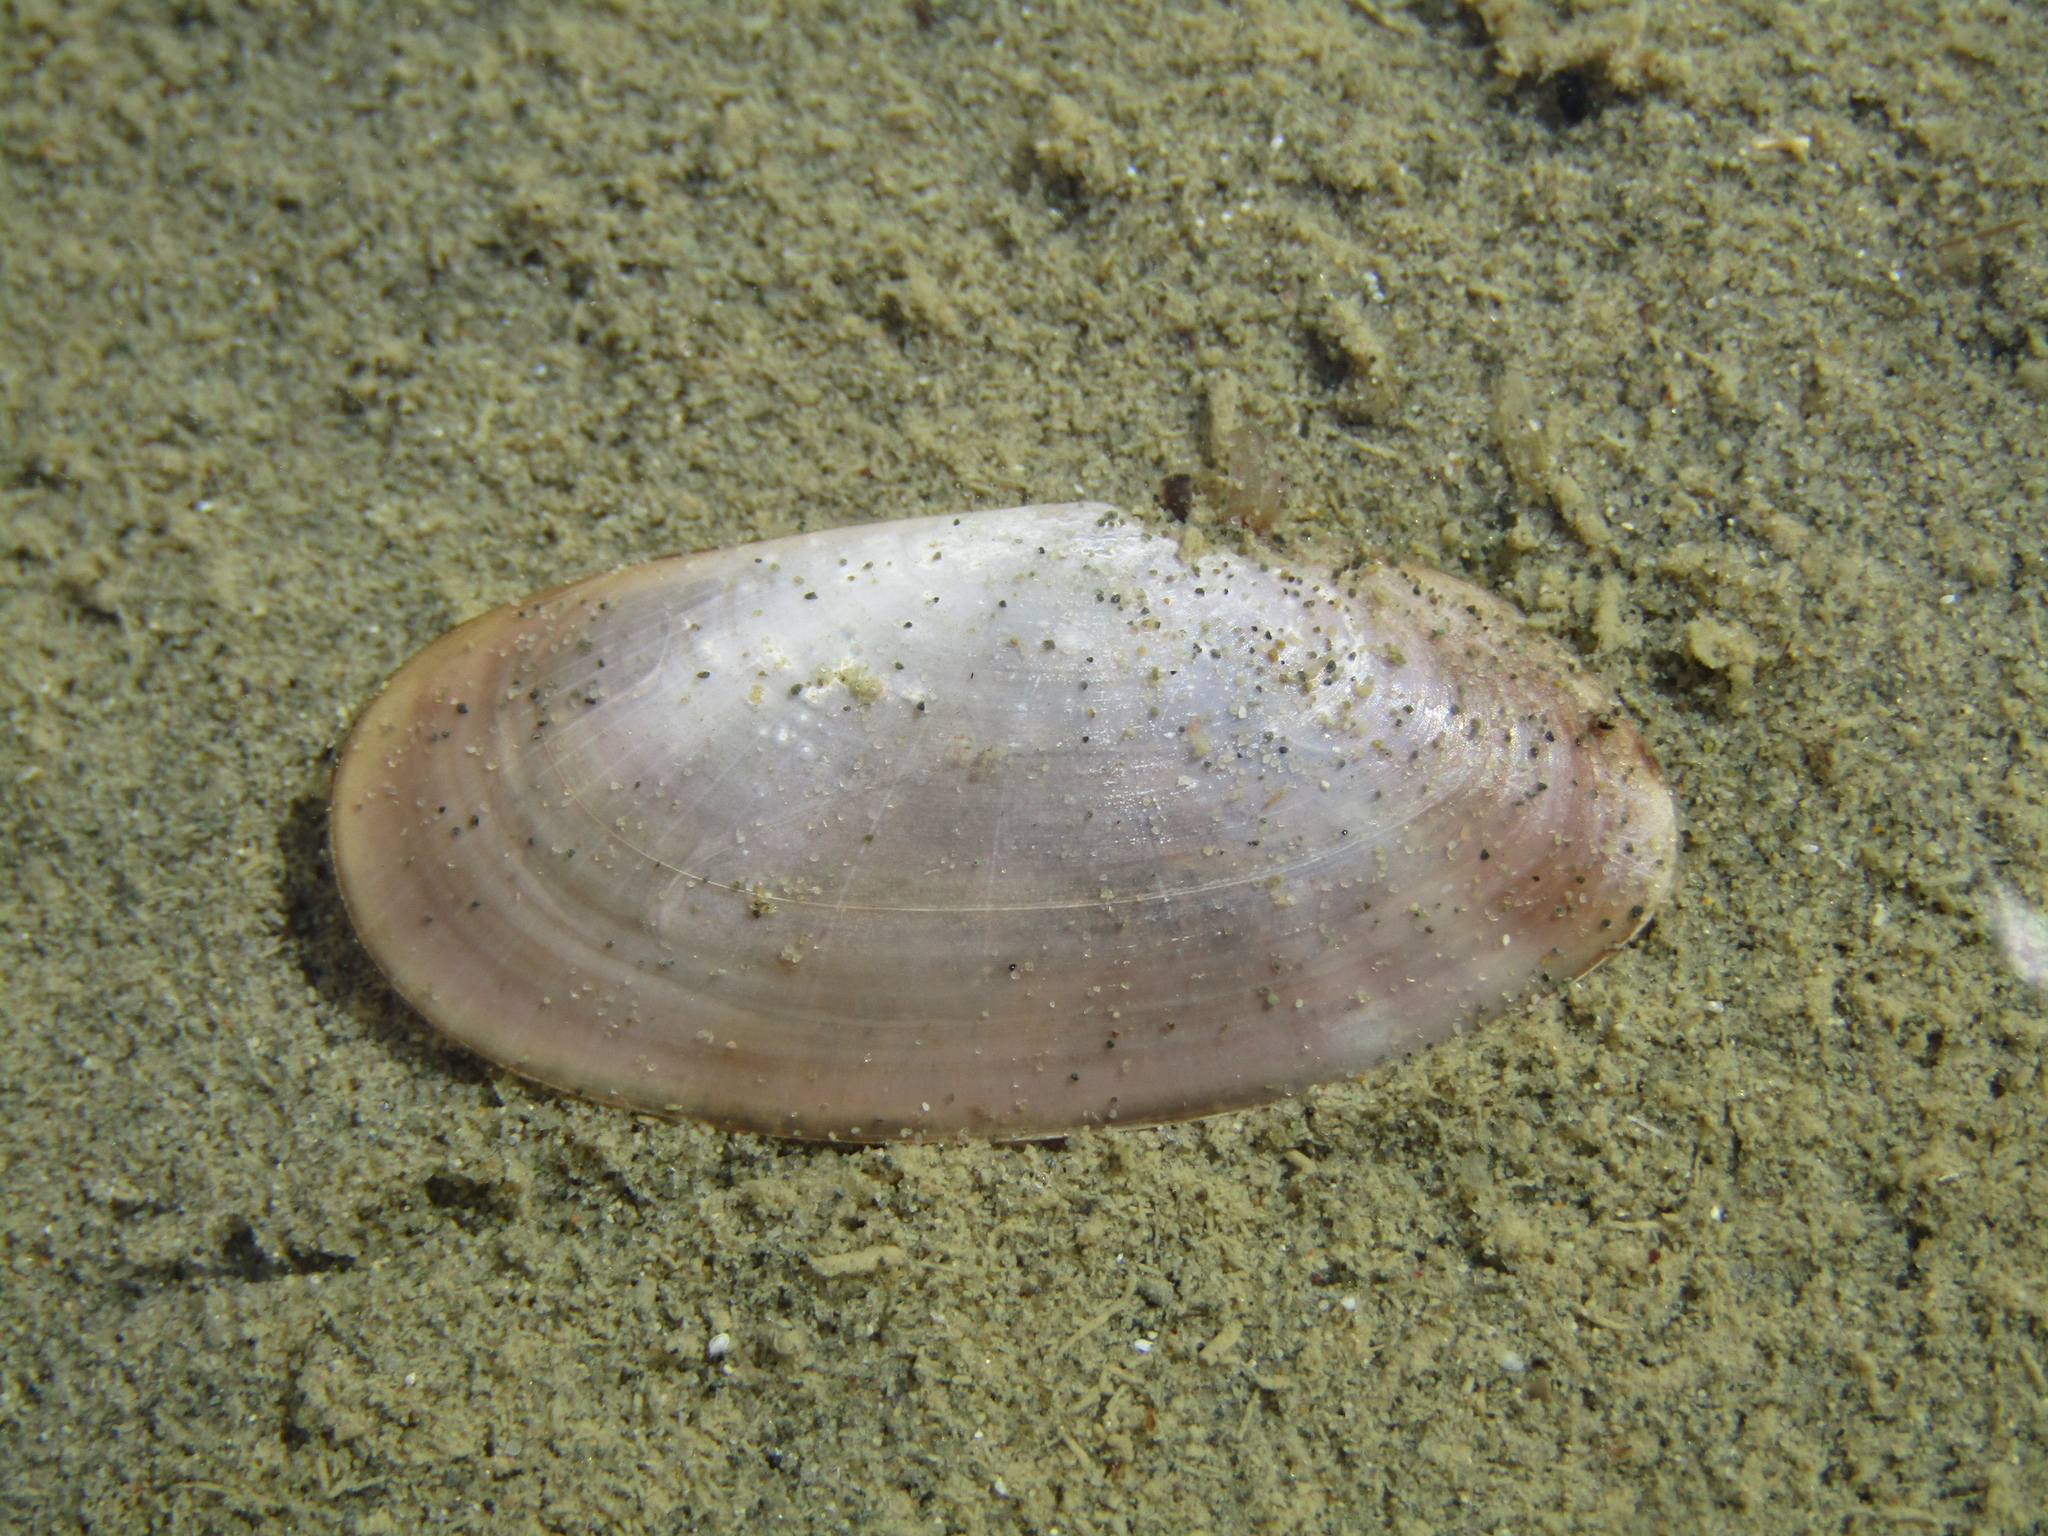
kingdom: Animalia
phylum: Mollusca
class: Bivalvia
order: Cardiida
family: Psammobiidae
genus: Hiatula
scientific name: Hiatula nitida
